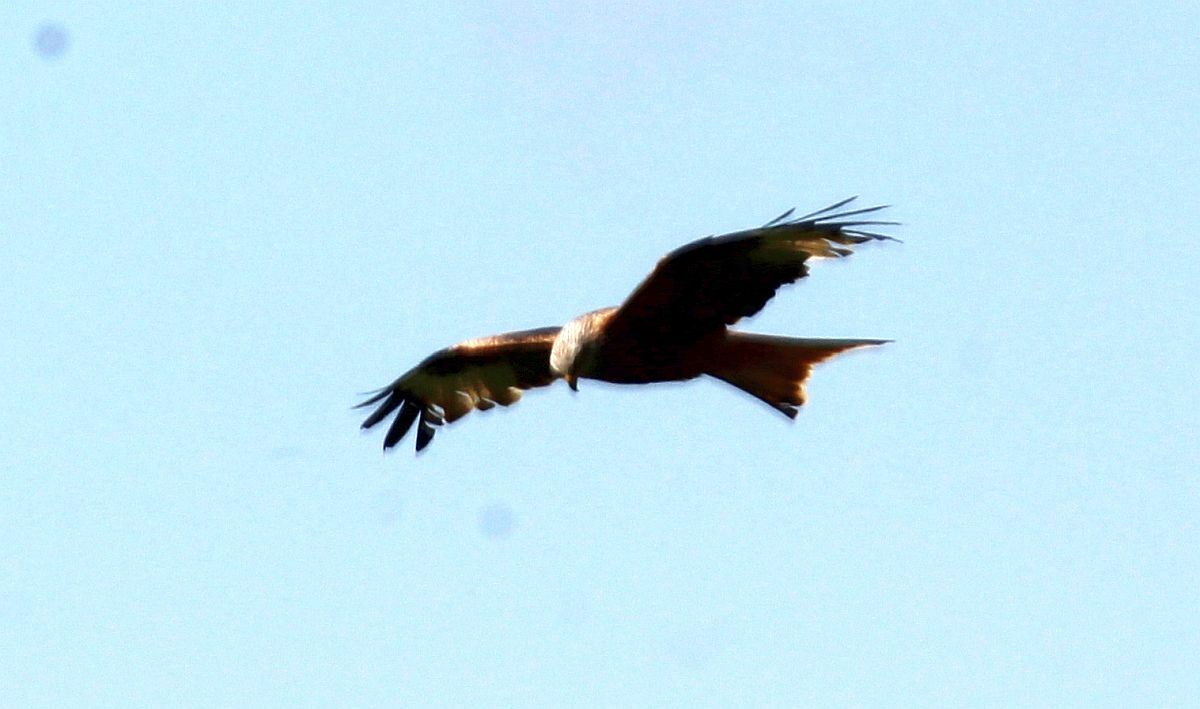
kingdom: Animalia
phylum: Chordata
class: Aves
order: Accipitriformes
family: Accipitridae
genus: Milvus
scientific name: Milvus milvus
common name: Red kite
